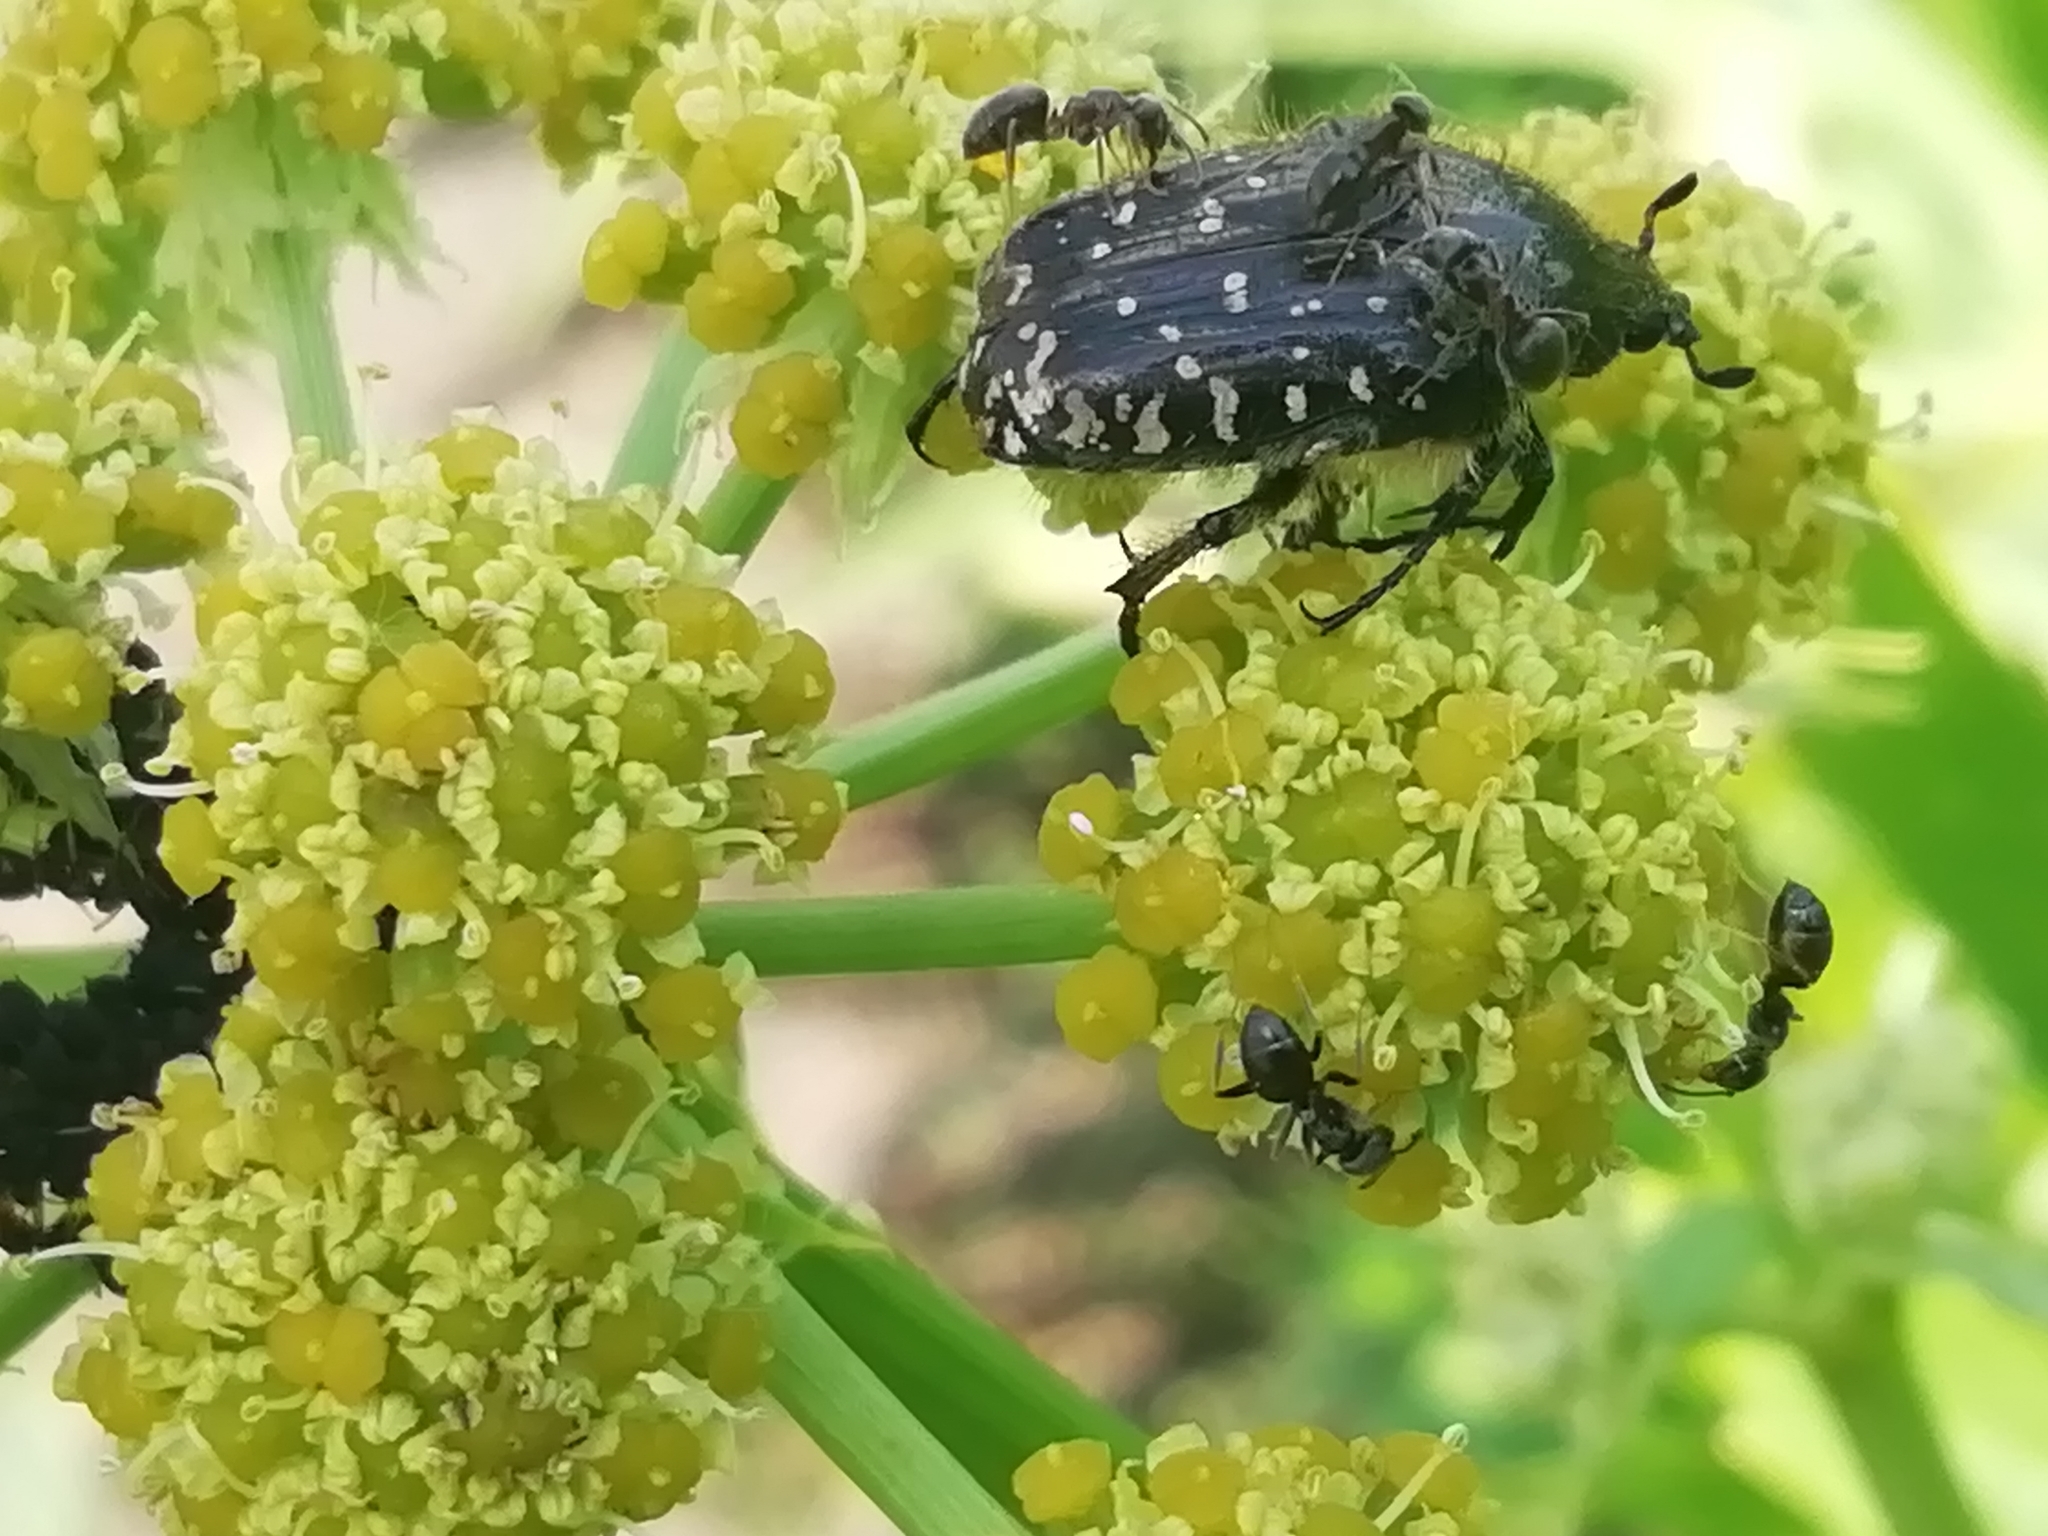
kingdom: Animalia
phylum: Arthropoda
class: Insecta
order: Coleoptera
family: Scarabaeidae
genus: Oxythyrea
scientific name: Oxythyrea funesta
